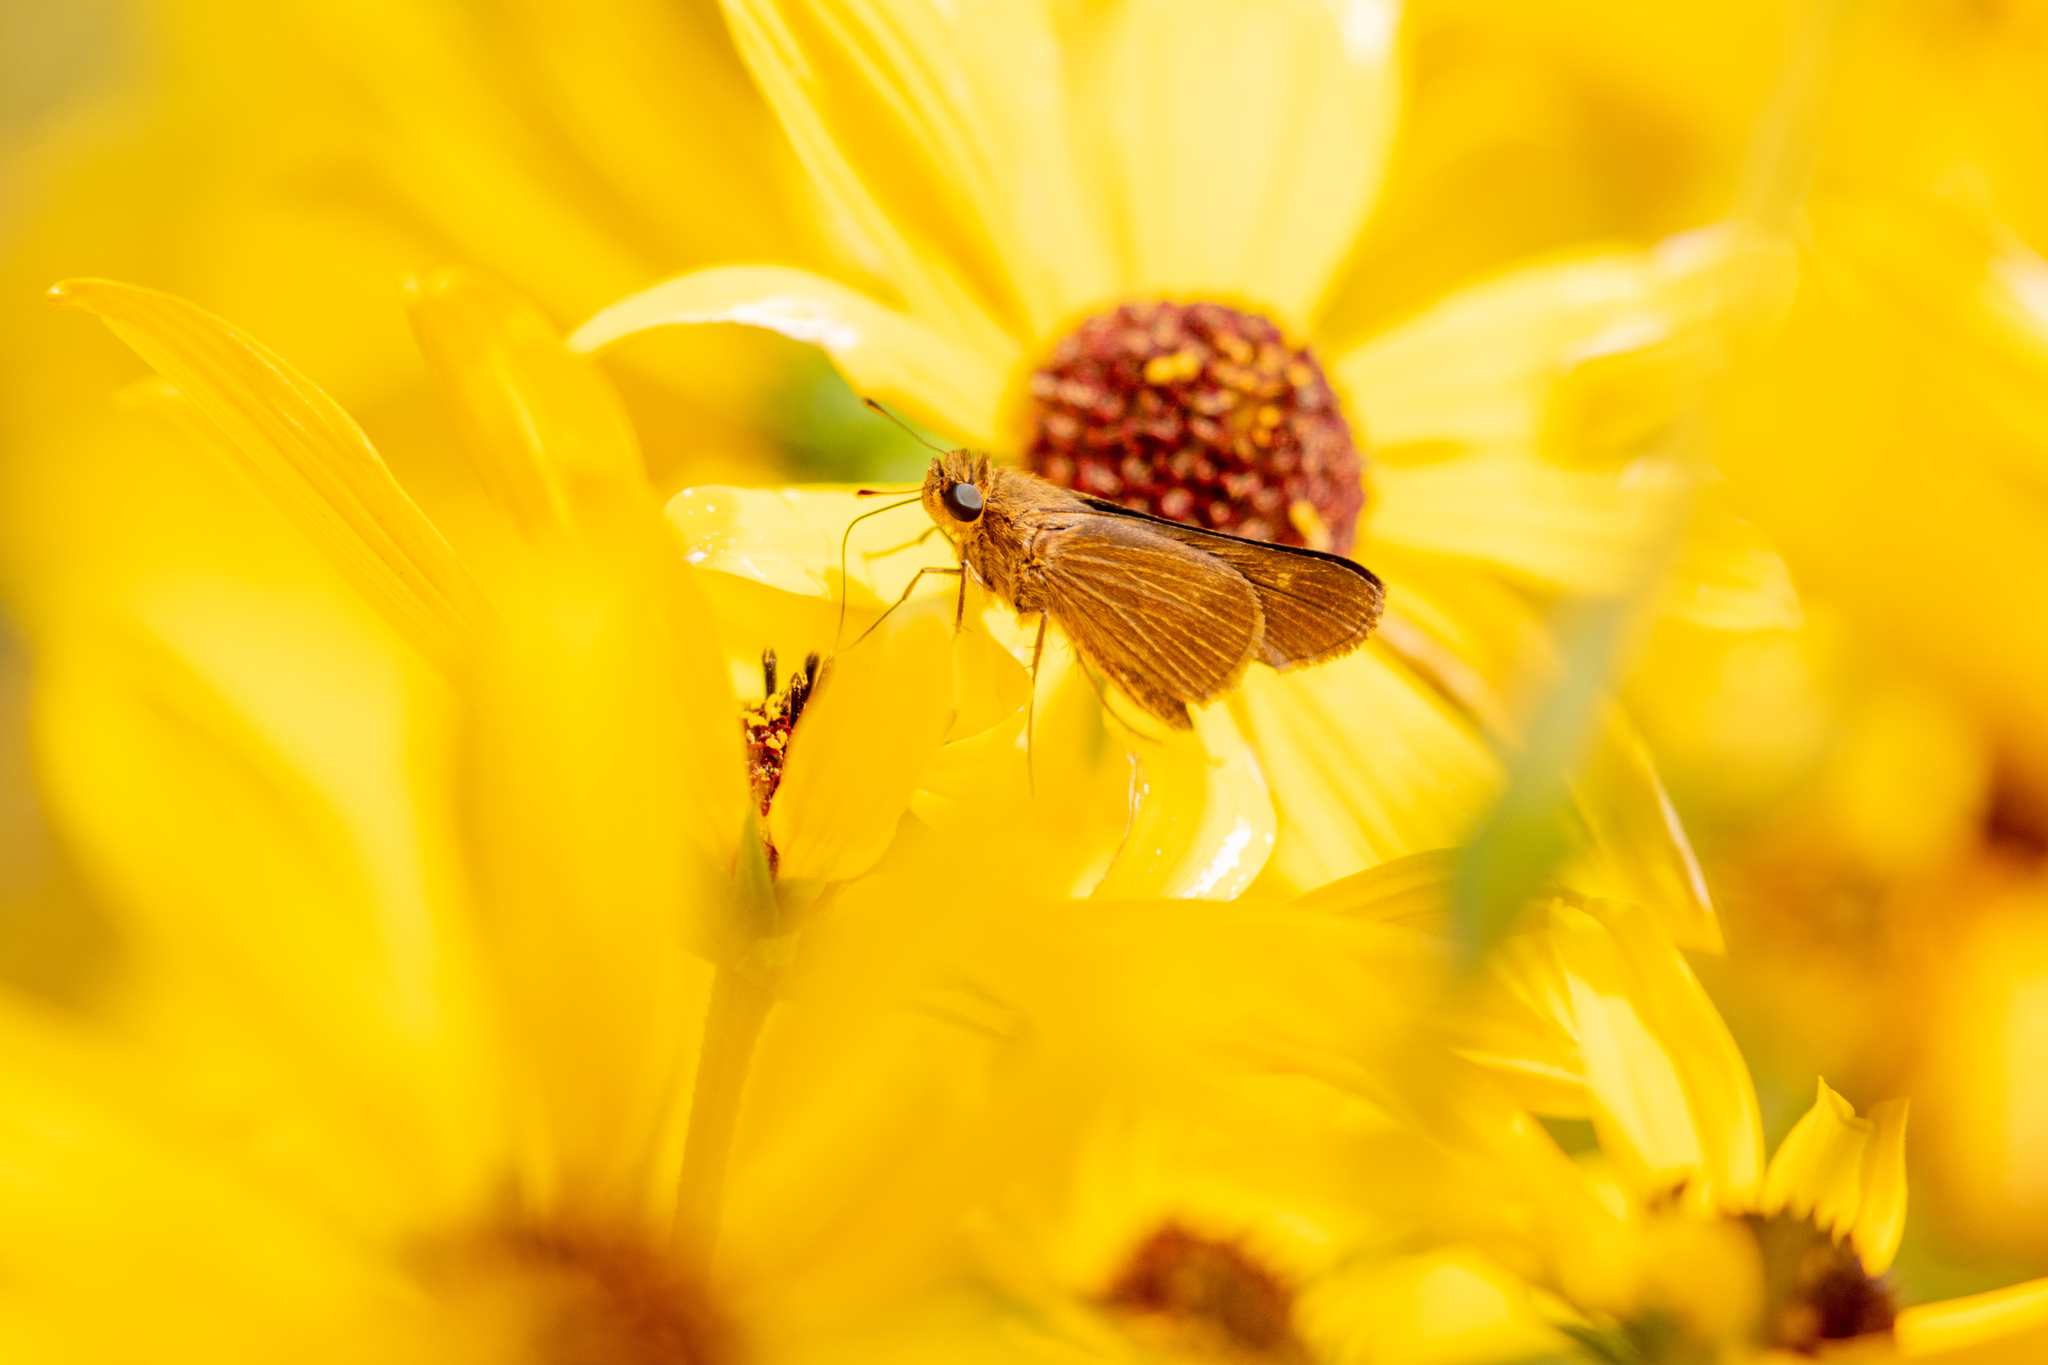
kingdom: Animalia
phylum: Arthropoda
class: Insecta
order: Lepidoptera
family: Hesperiidae
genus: Panoquina
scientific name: Panoquina ocola
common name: Ocola skipper
